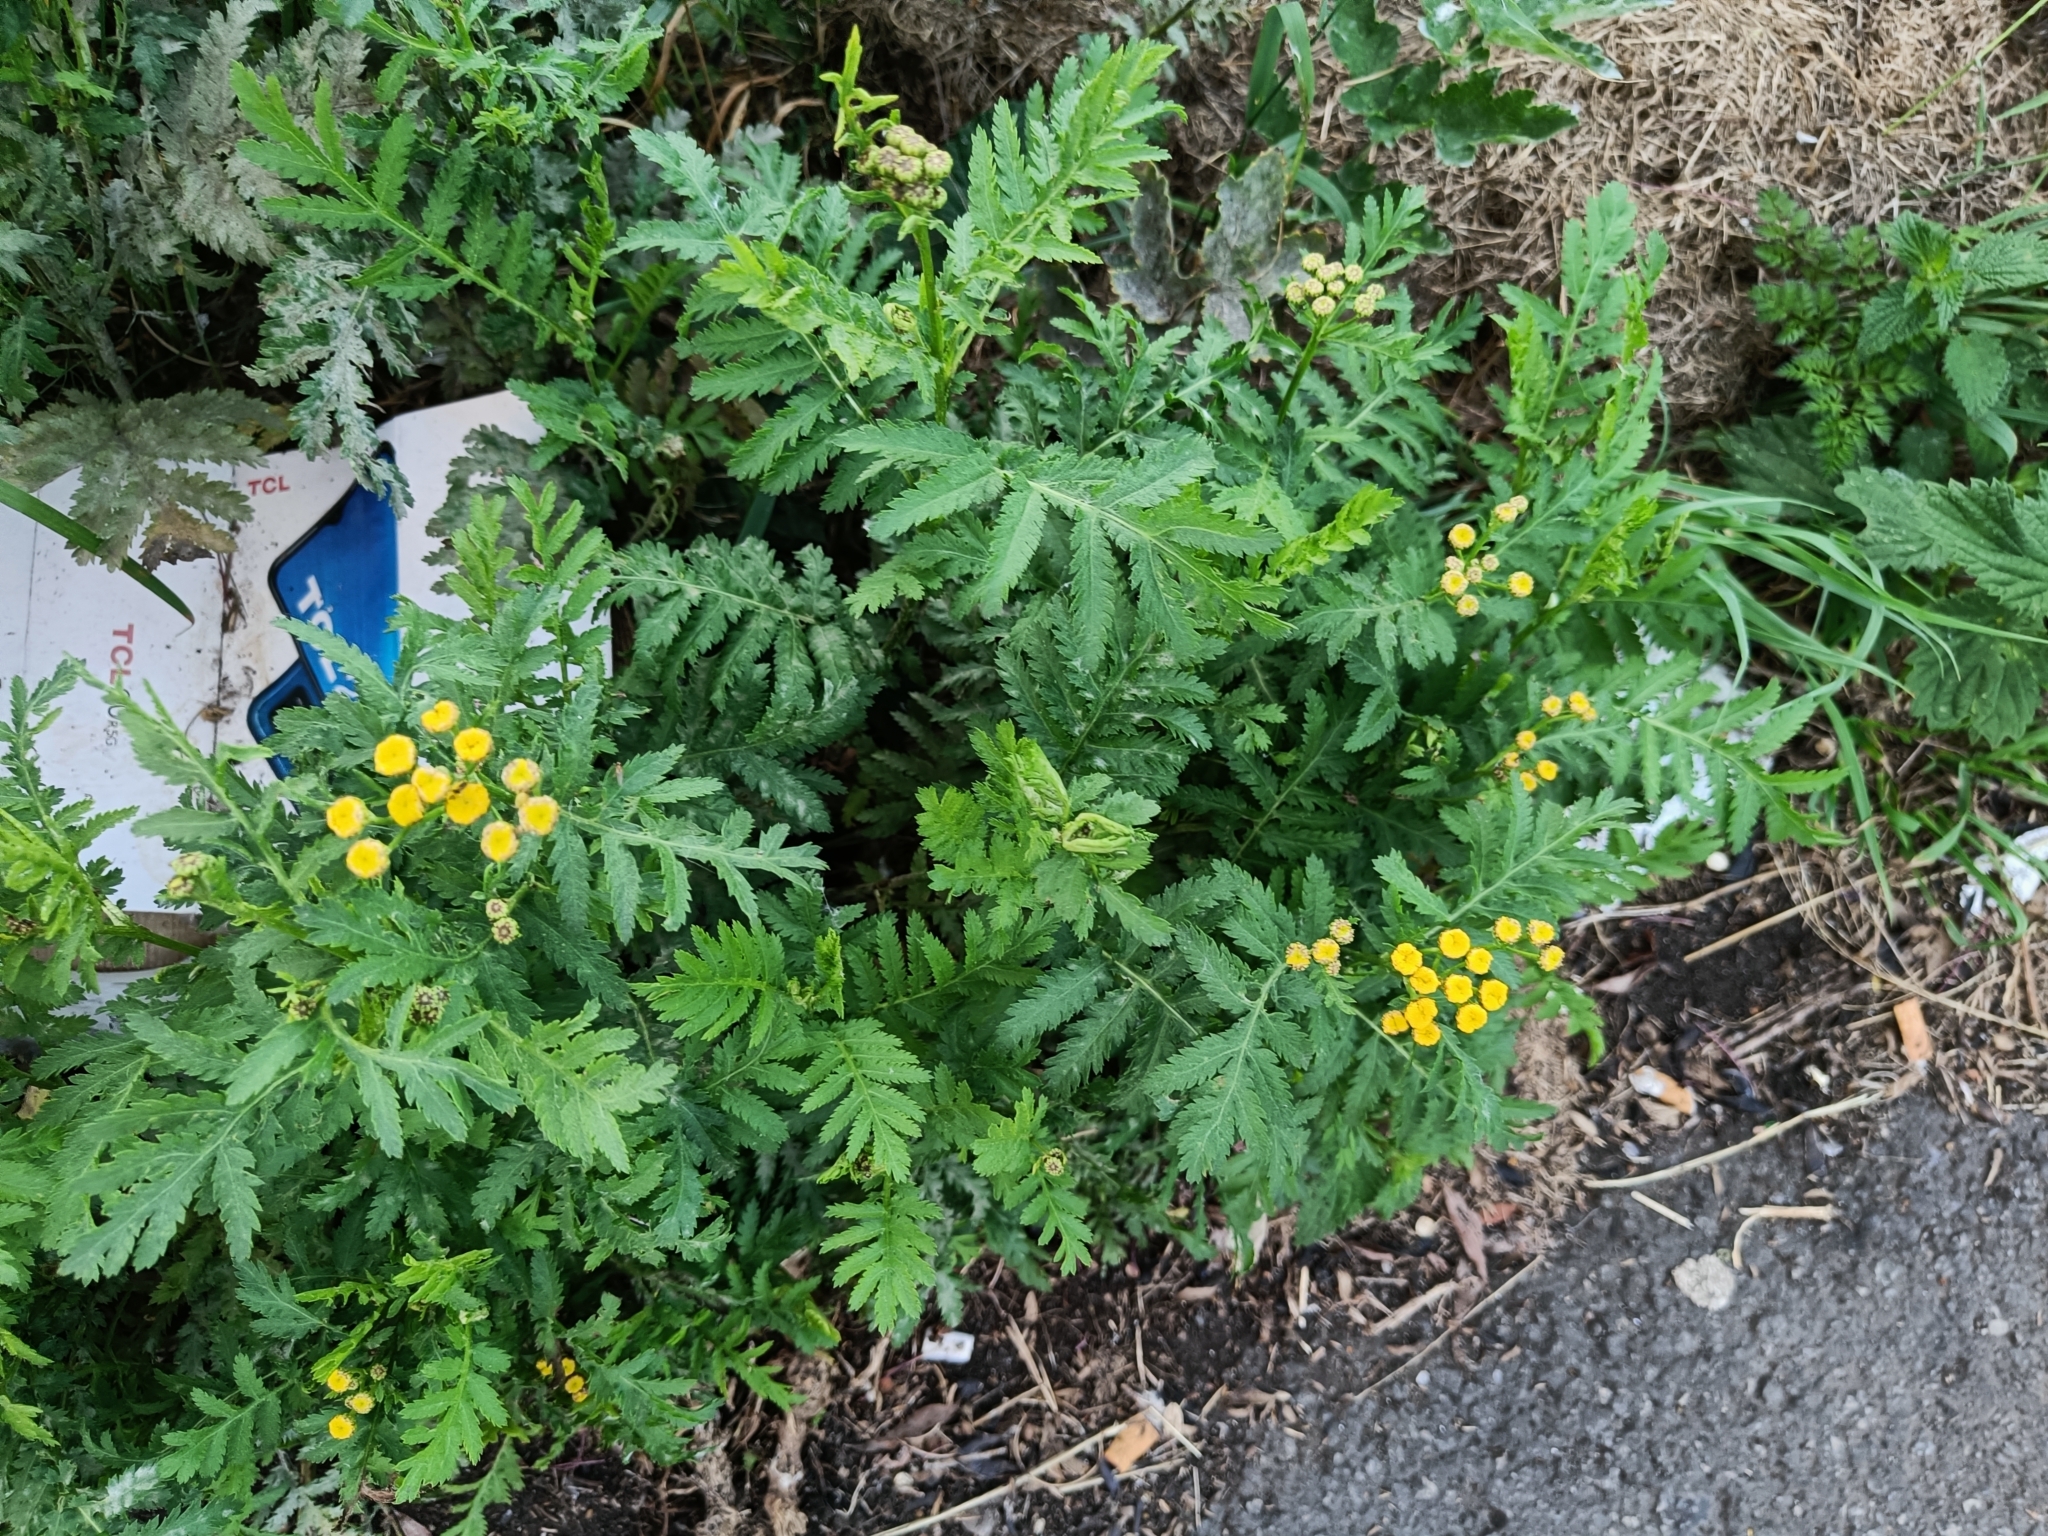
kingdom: Plantae
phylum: Tracheophyta
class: Magnoliopsida
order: Asterales
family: Asteraceae
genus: Tanacetum
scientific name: Tanacetum vulgare
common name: Common tansy
